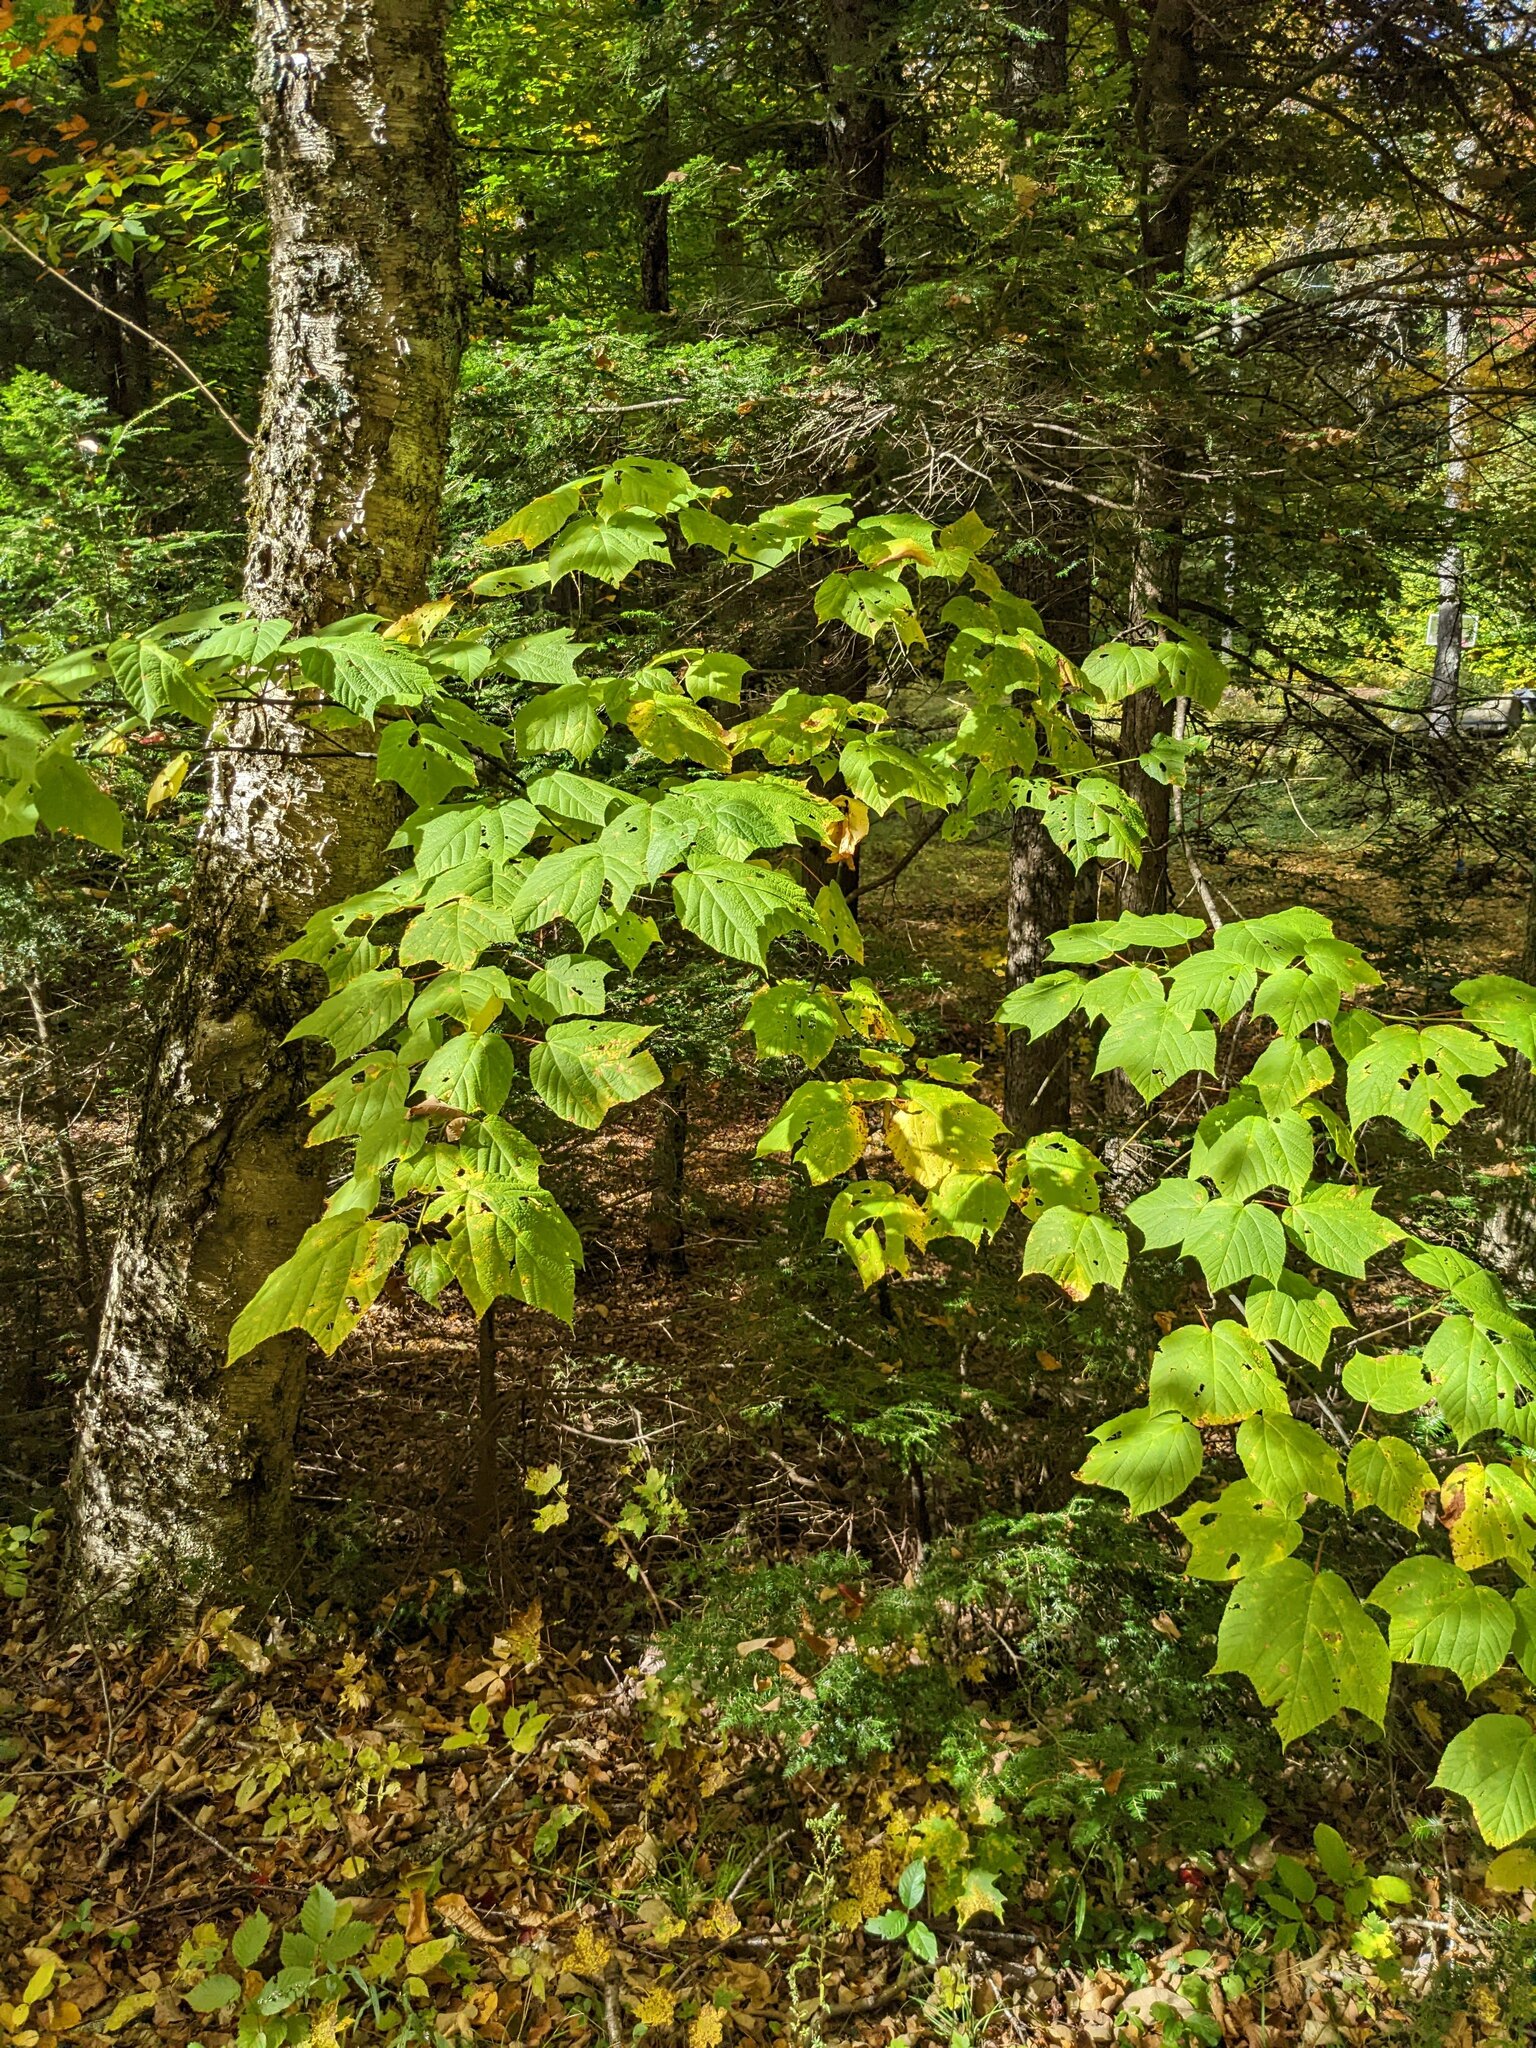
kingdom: Plantae
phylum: Tracheophyta
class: Magnoliopsida
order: Sapindales
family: Sapindaceae
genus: Acer
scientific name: Acer pensylvanicum
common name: Moosewood
